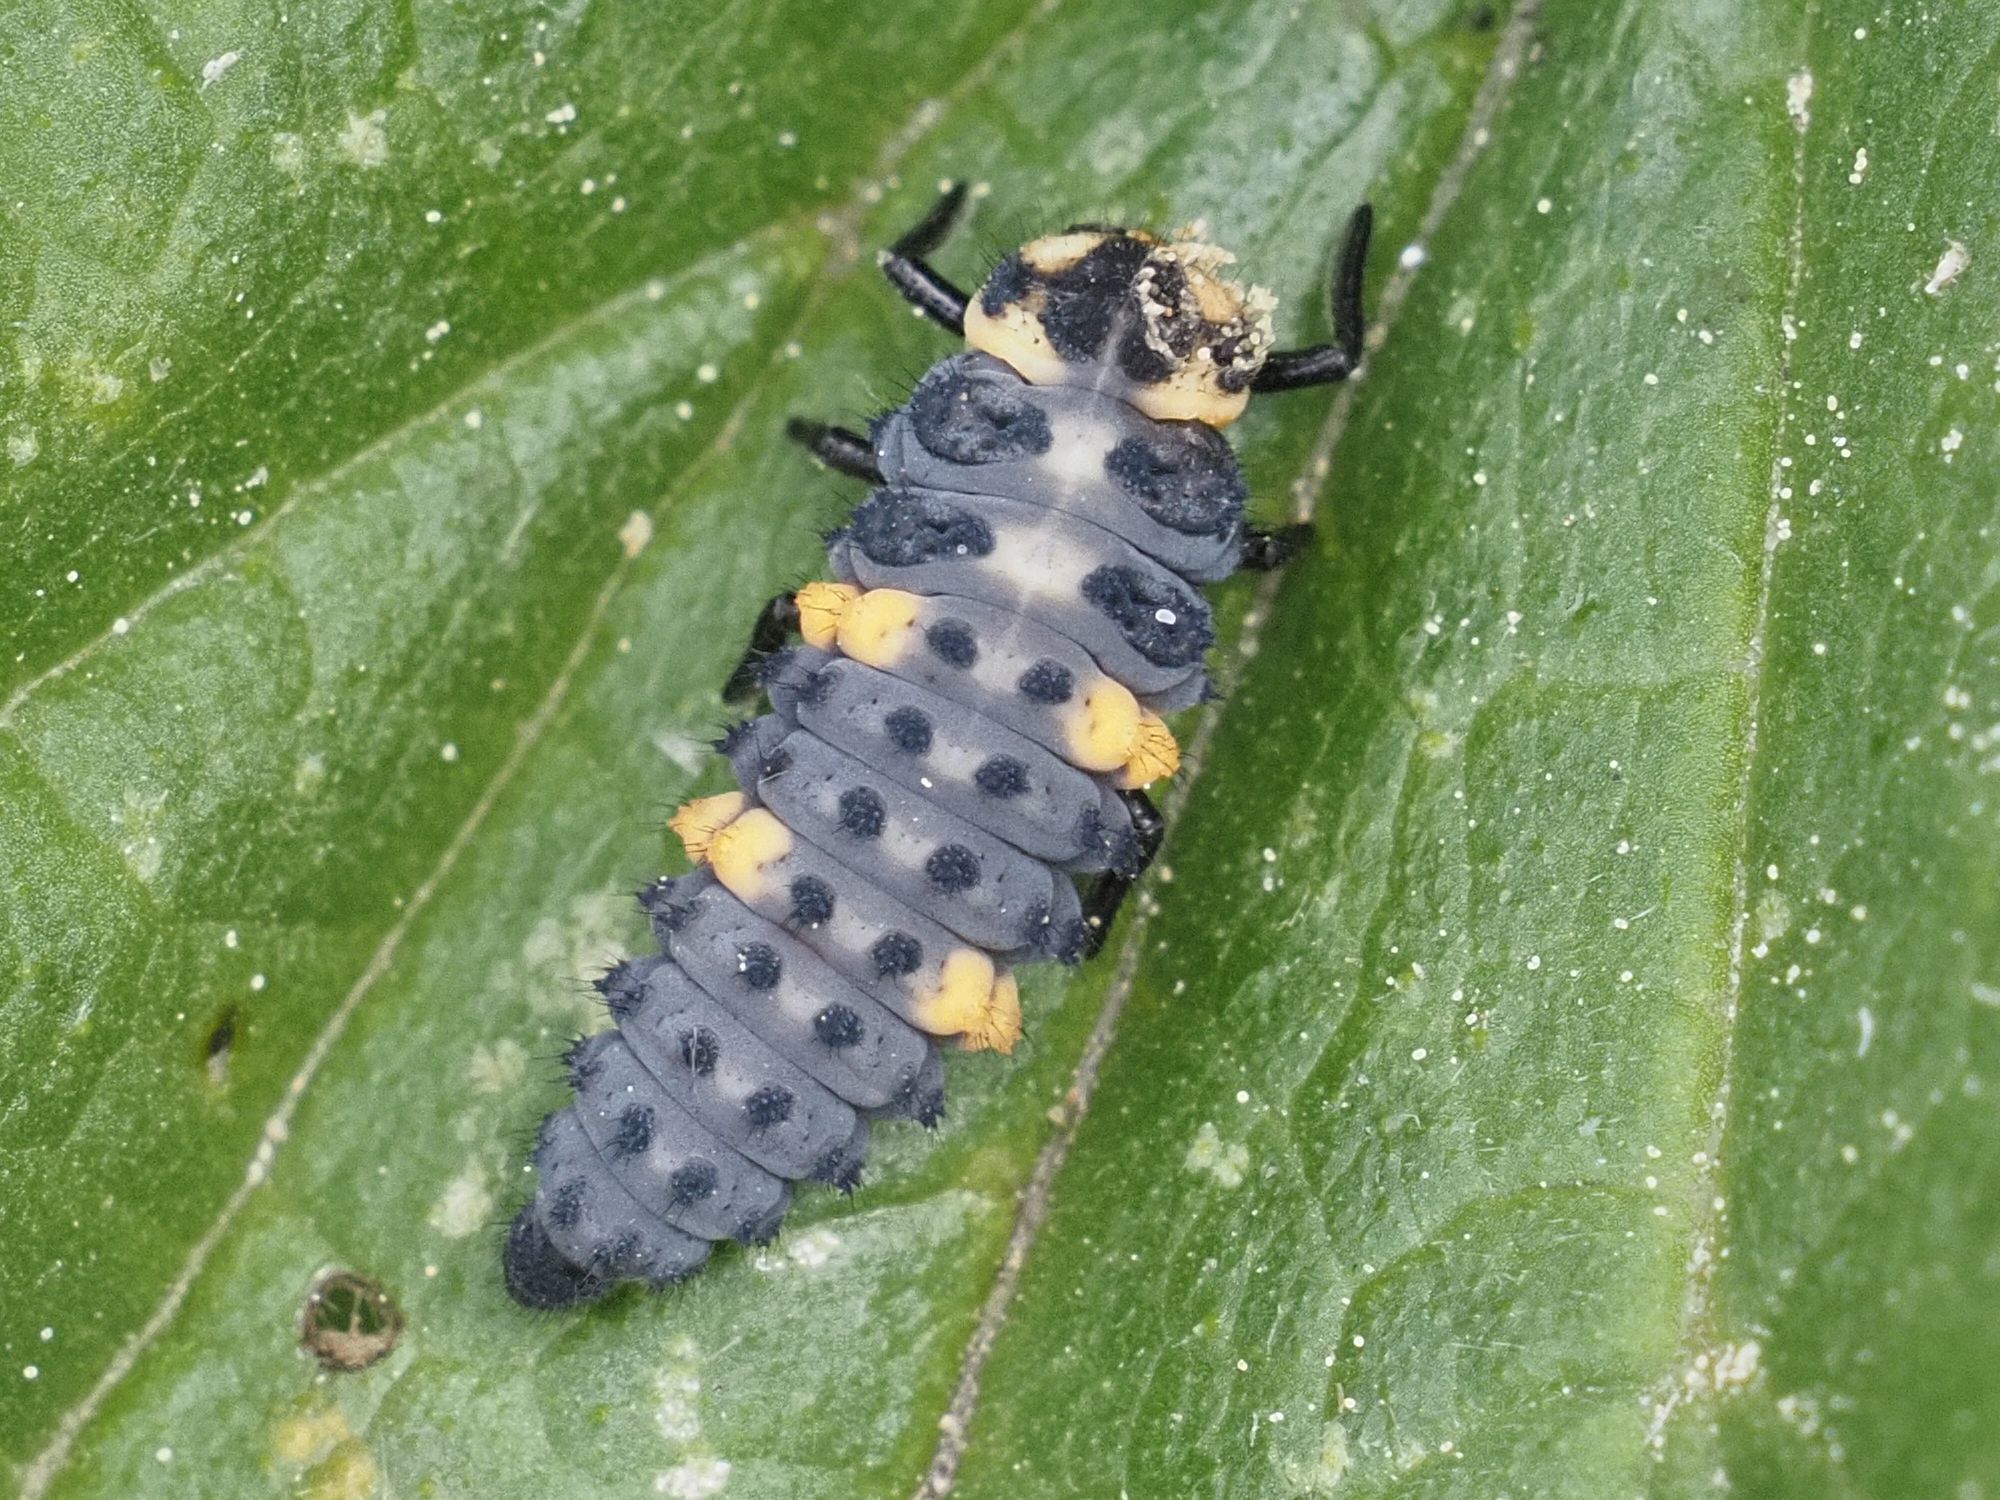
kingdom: Animalia
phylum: Arthropoda
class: Insecta
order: Coleoptera
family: Coccinellidae
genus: Coccinella
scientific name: Coccinella septempunctata
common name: Sevenspotted lady beetle
